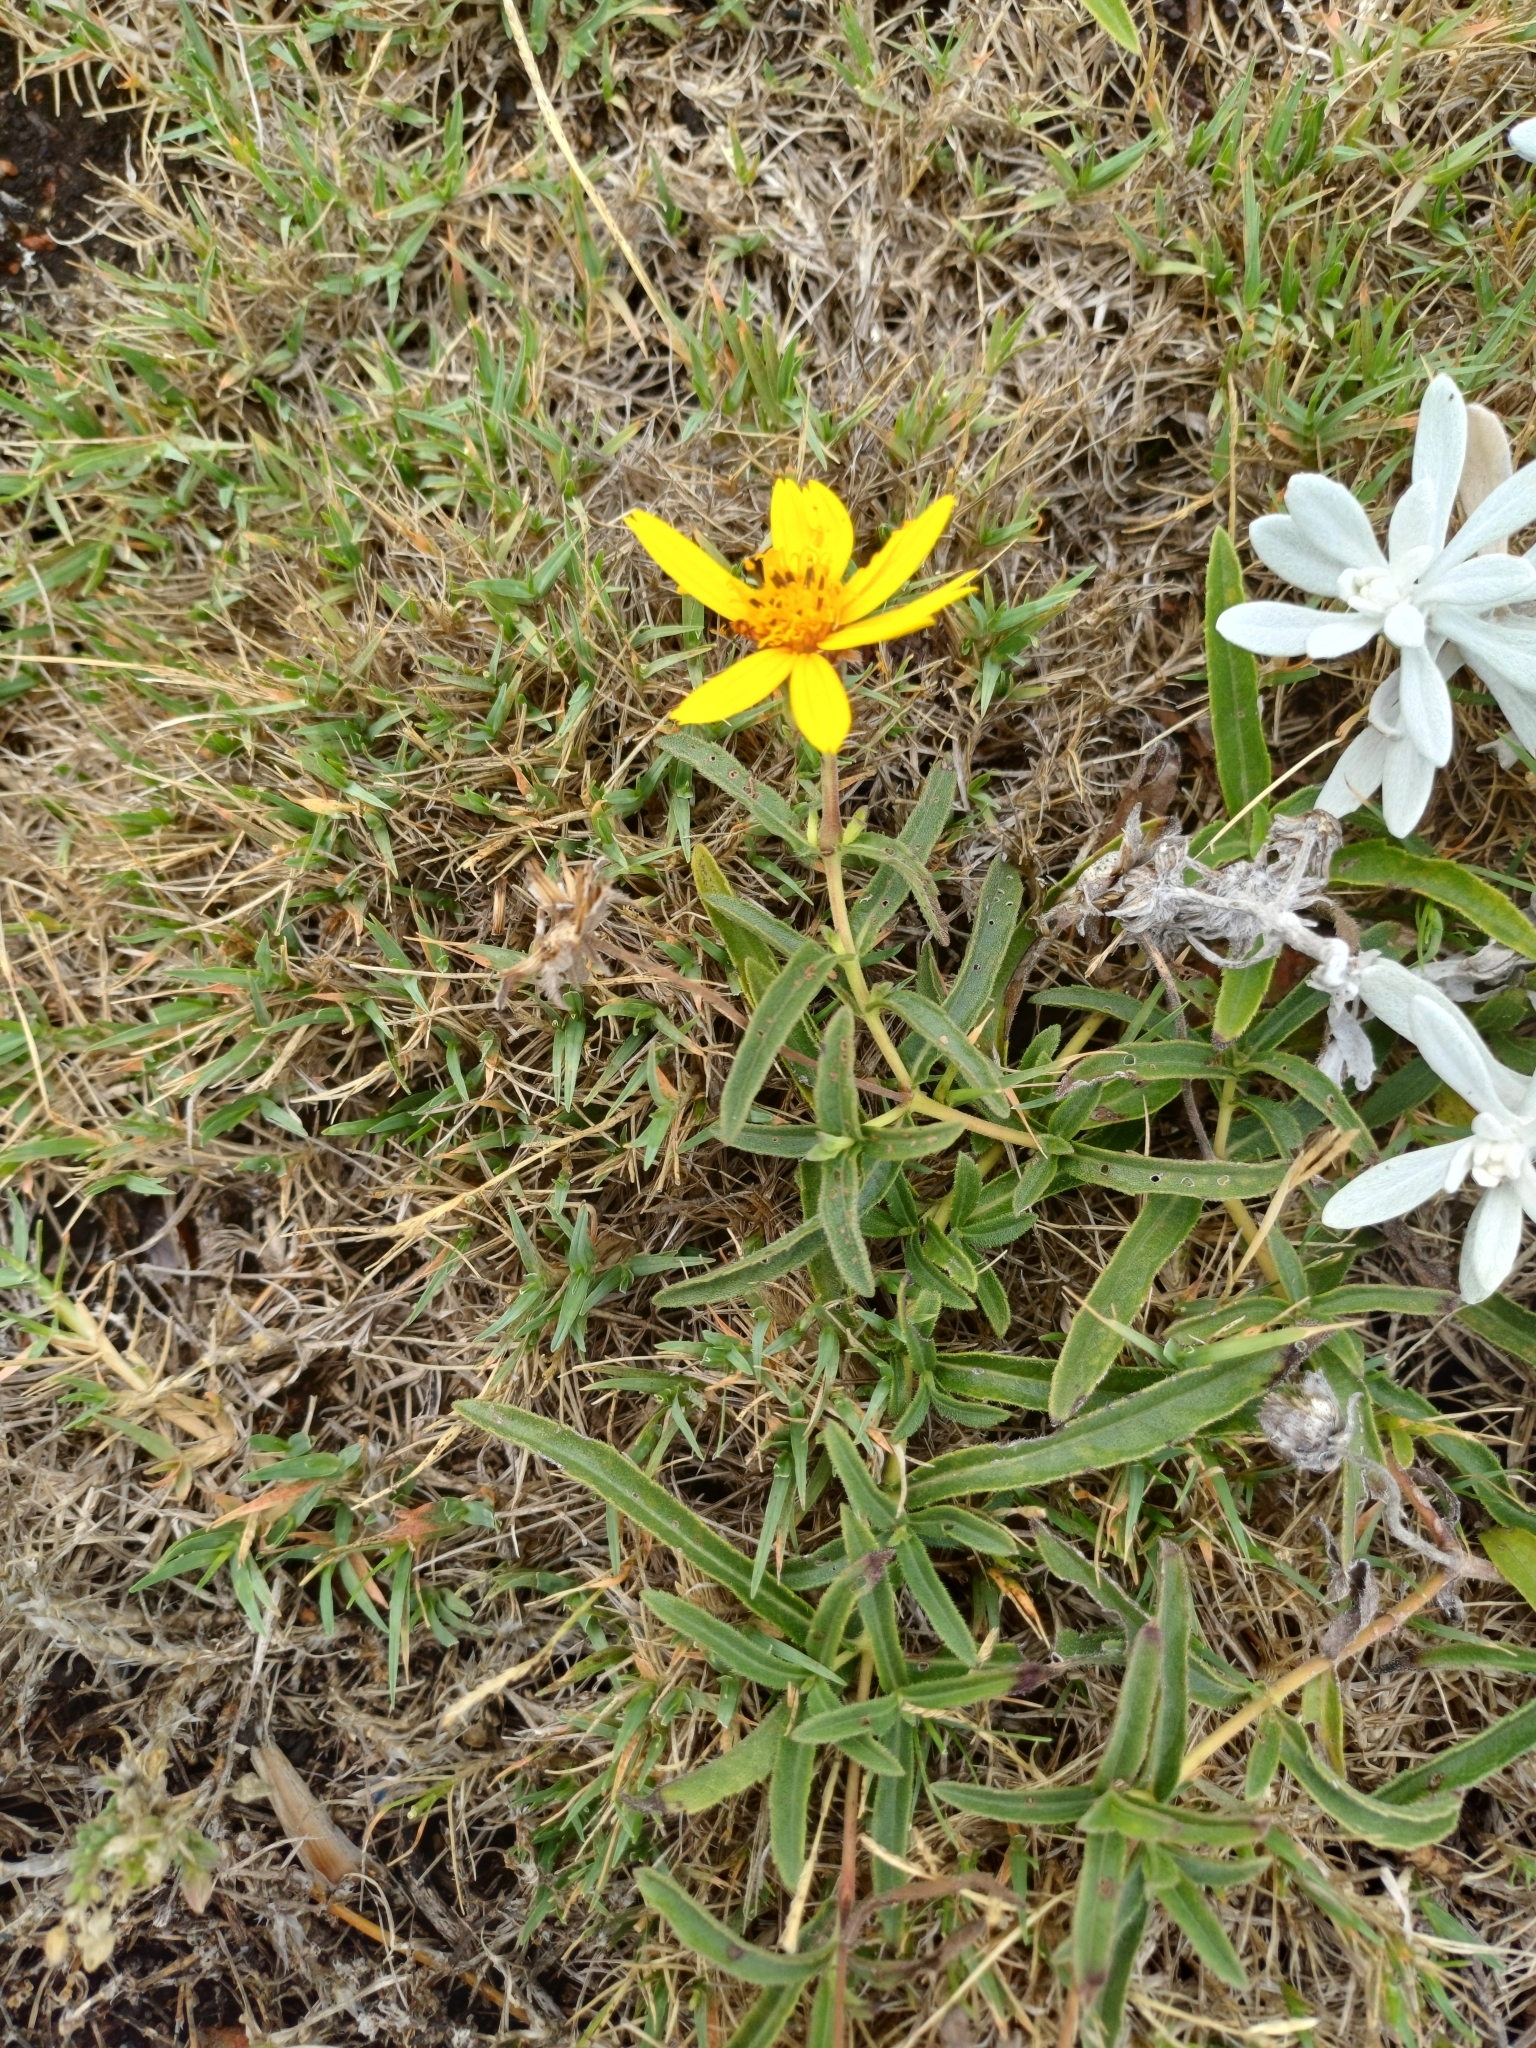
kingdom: Plantae
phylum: Tracheophyta
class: Magnoliopsida
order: Asterales
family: Asteraceae
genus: Wedelia
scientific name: Wedelia montevidensis
